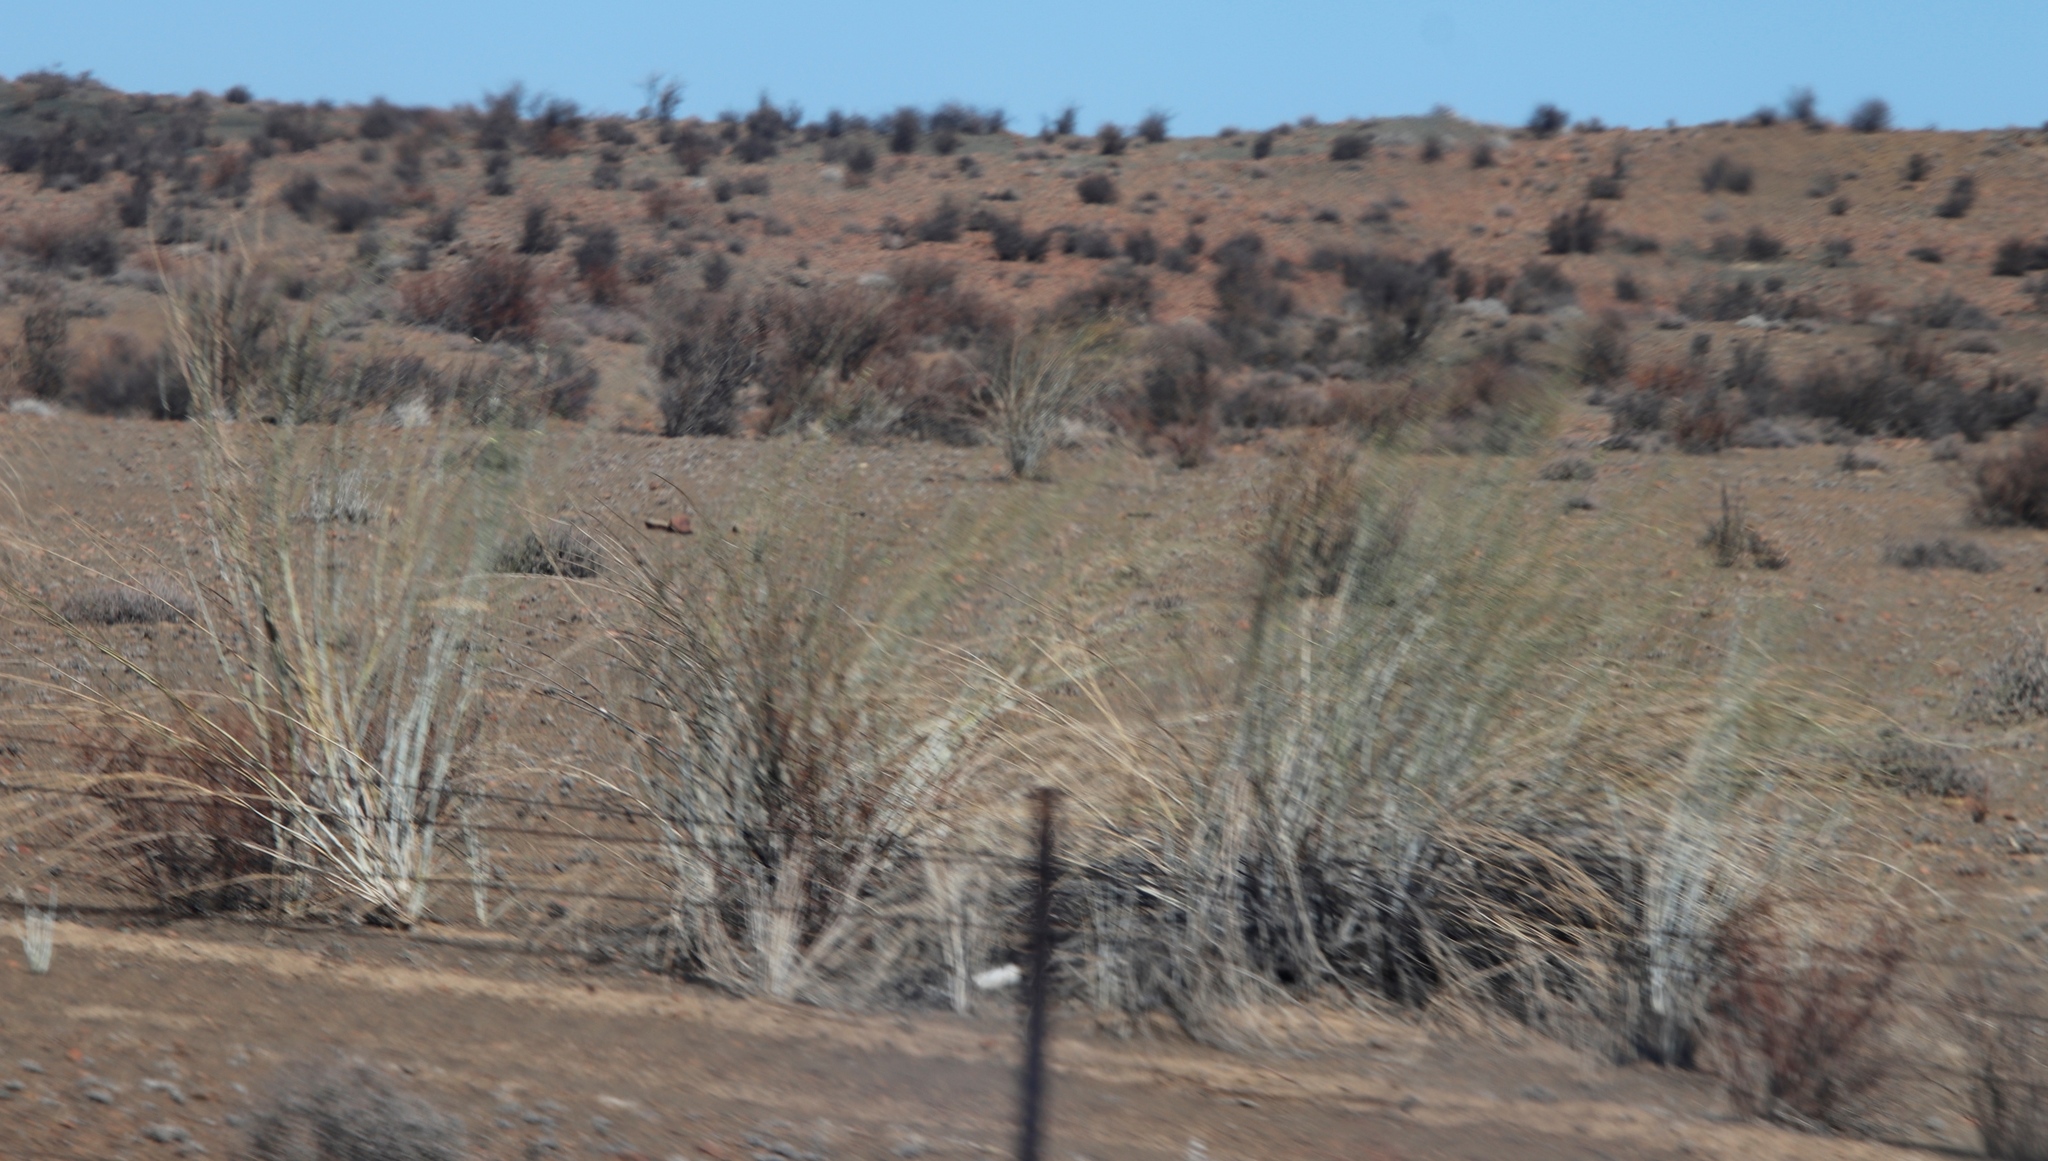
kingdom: Plantae
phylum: Tracheophyta
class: Magnoliopsida
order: Gentianales
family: Apocynaceae
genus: Gomphocarpus
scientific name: Gomphocarpus filiformis
